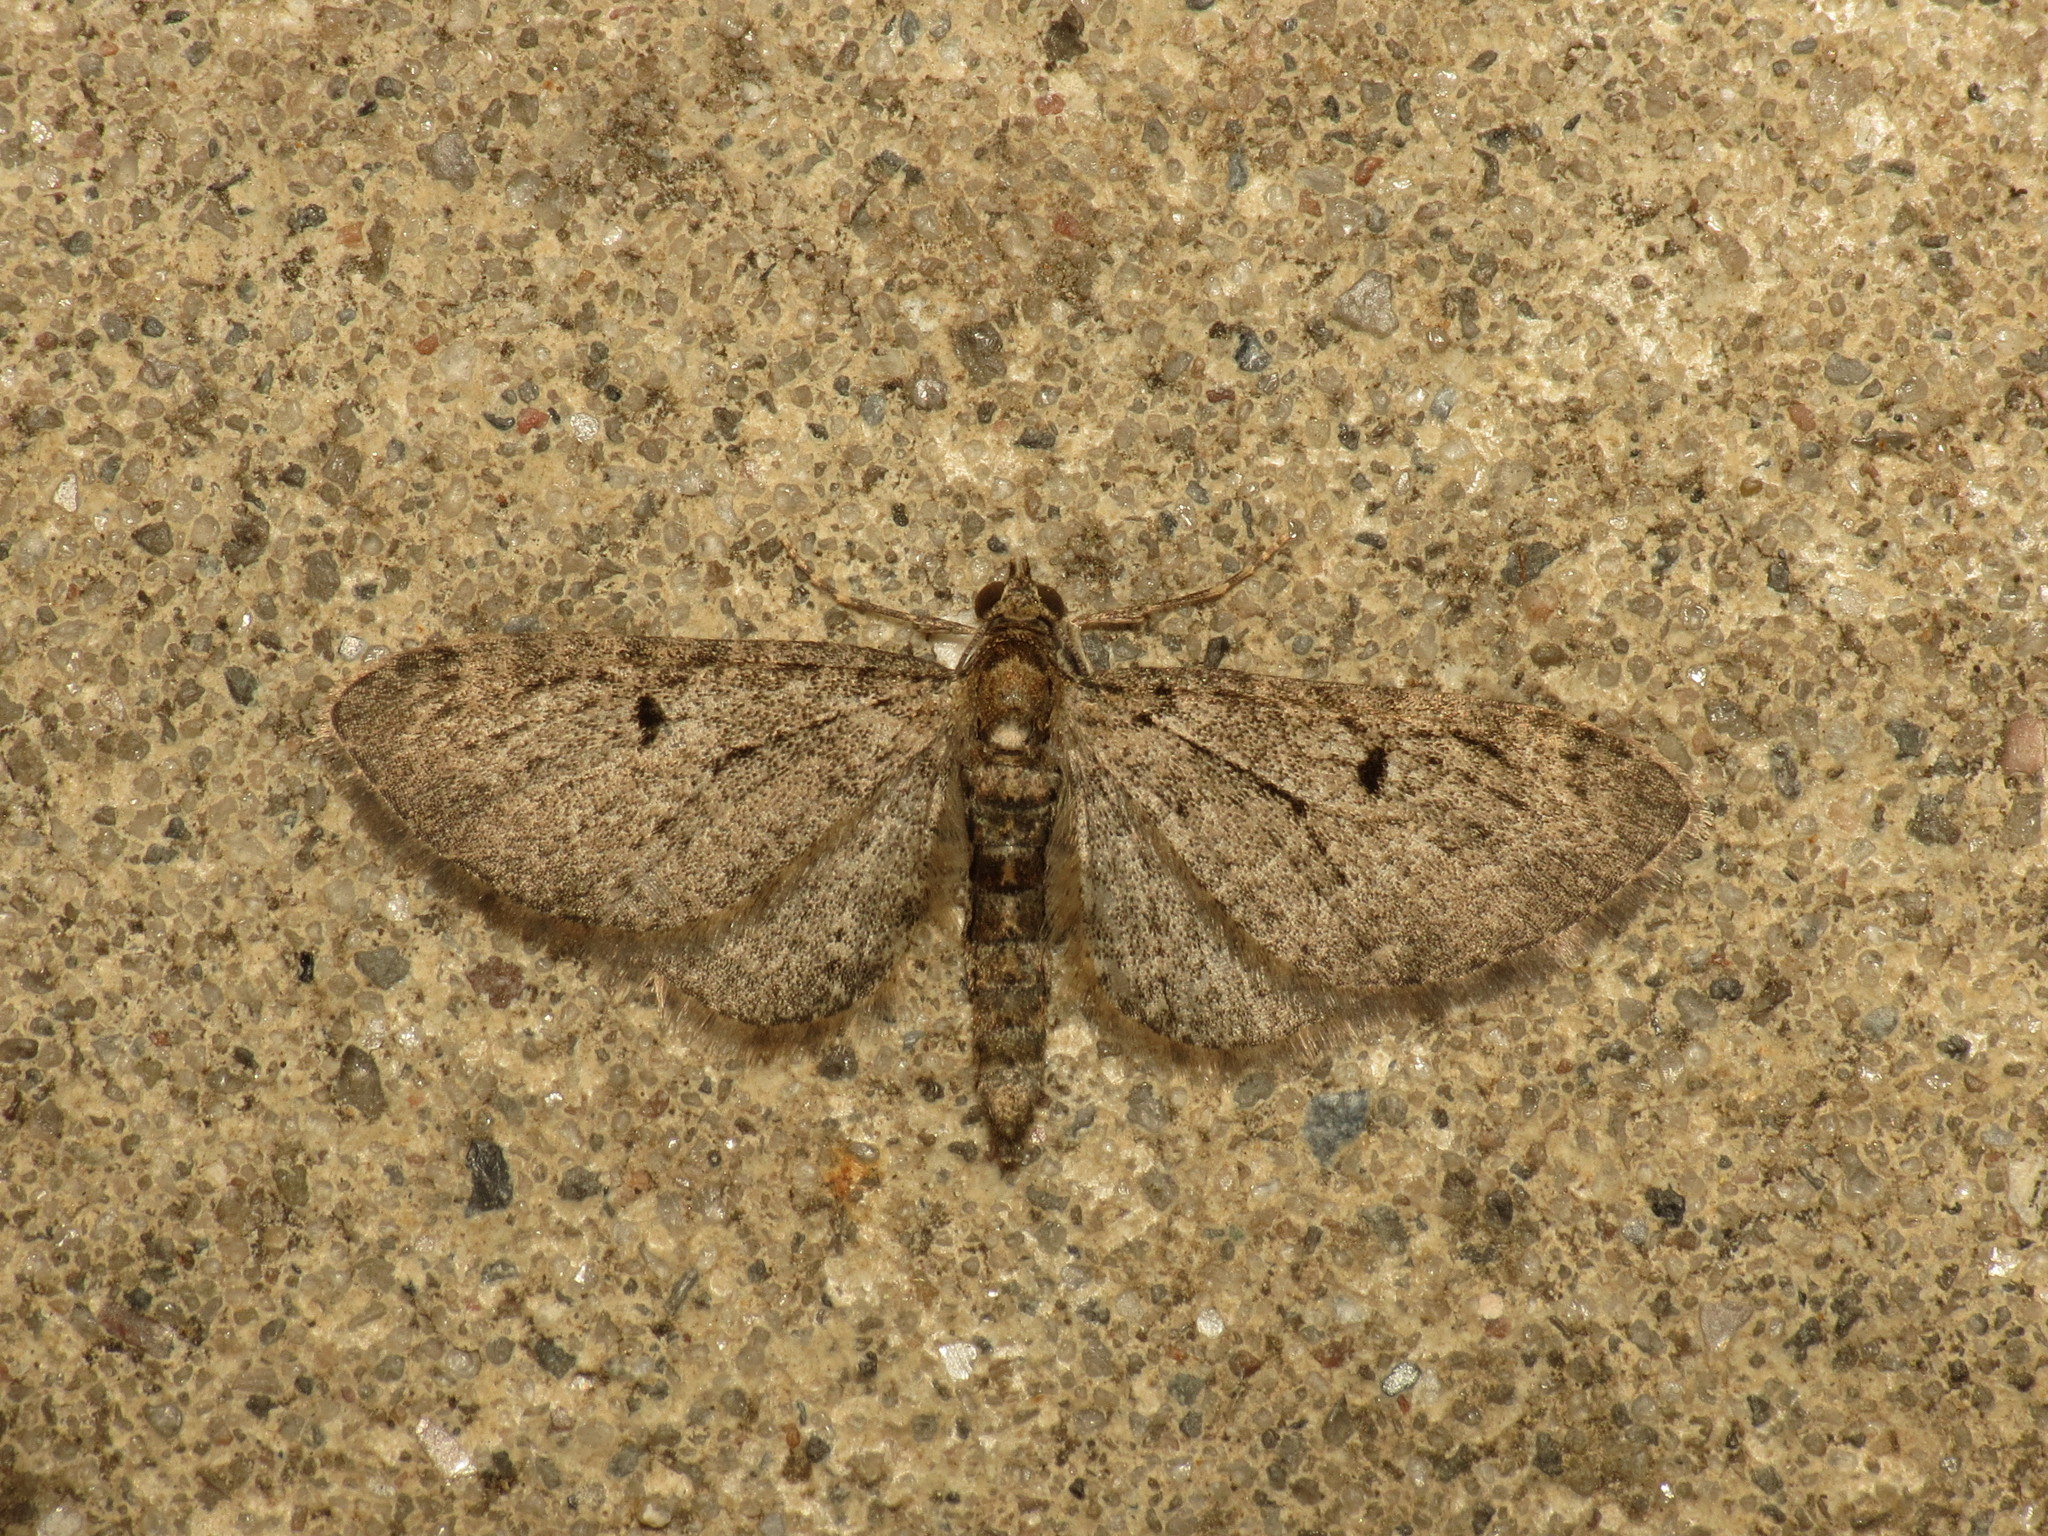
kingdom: Animalia
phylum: Arthropoda
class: Insecta
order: Lepidoptera
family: Geometridae
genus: Eupithecia
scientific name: Eupithecia virgaureata
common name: Golden-rod pug
